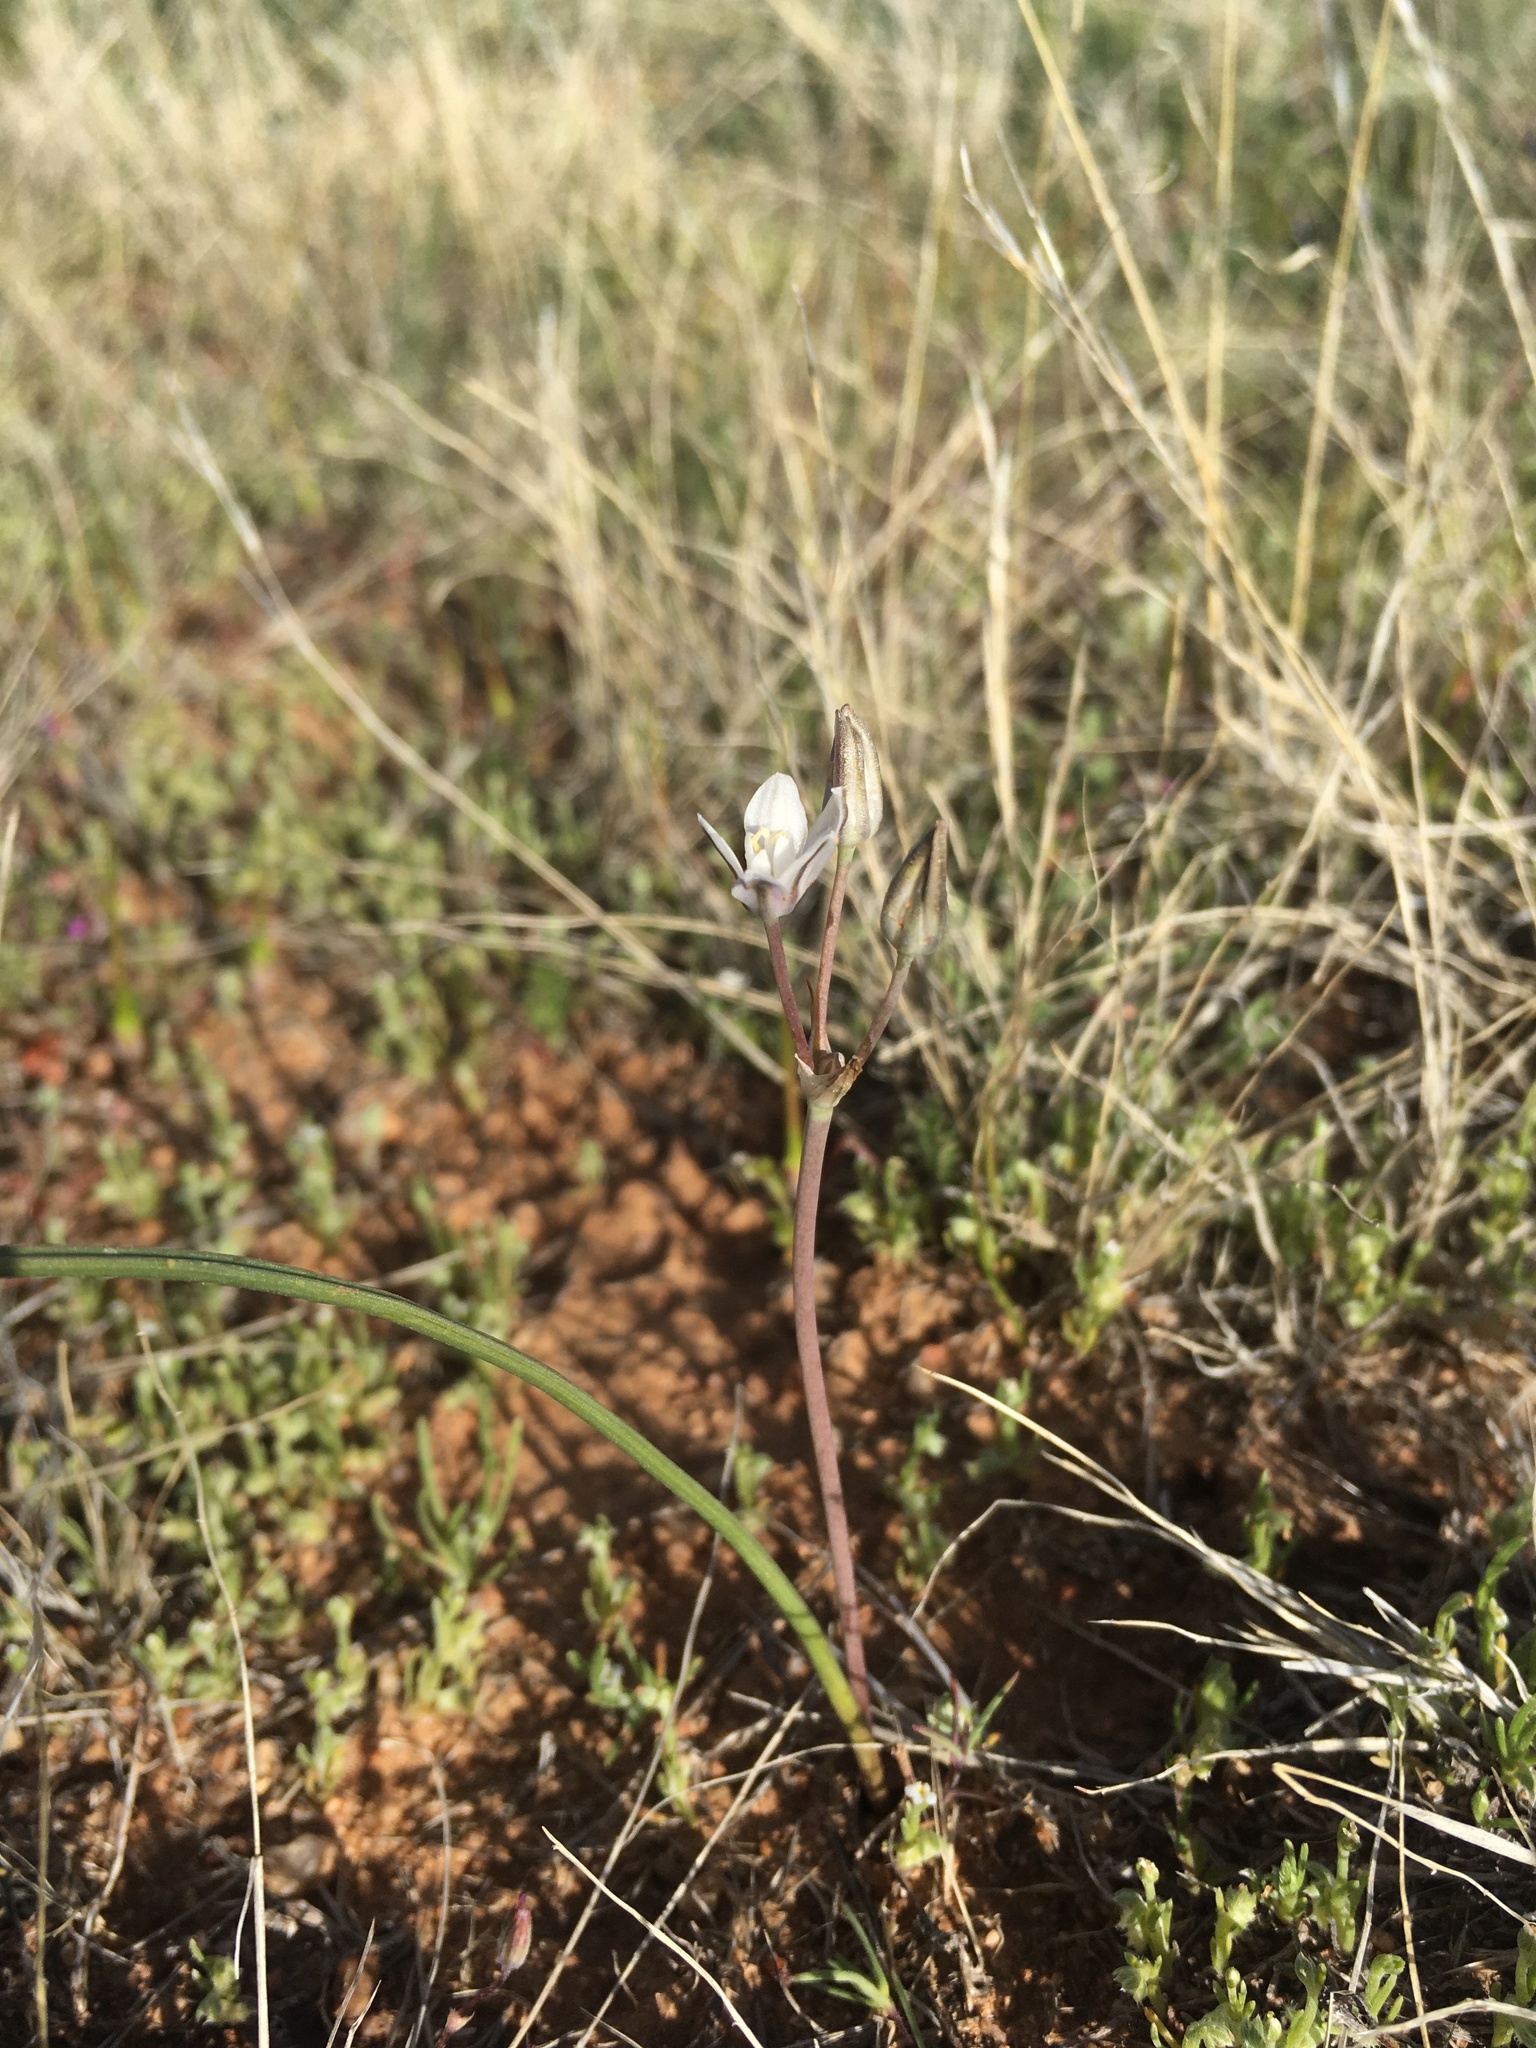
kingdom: Plantae
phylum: Tracheophyta
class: Liliopsida
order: Asparagales
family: Asparagaceae
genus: Muilla
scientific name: Muilla lordsburgana
